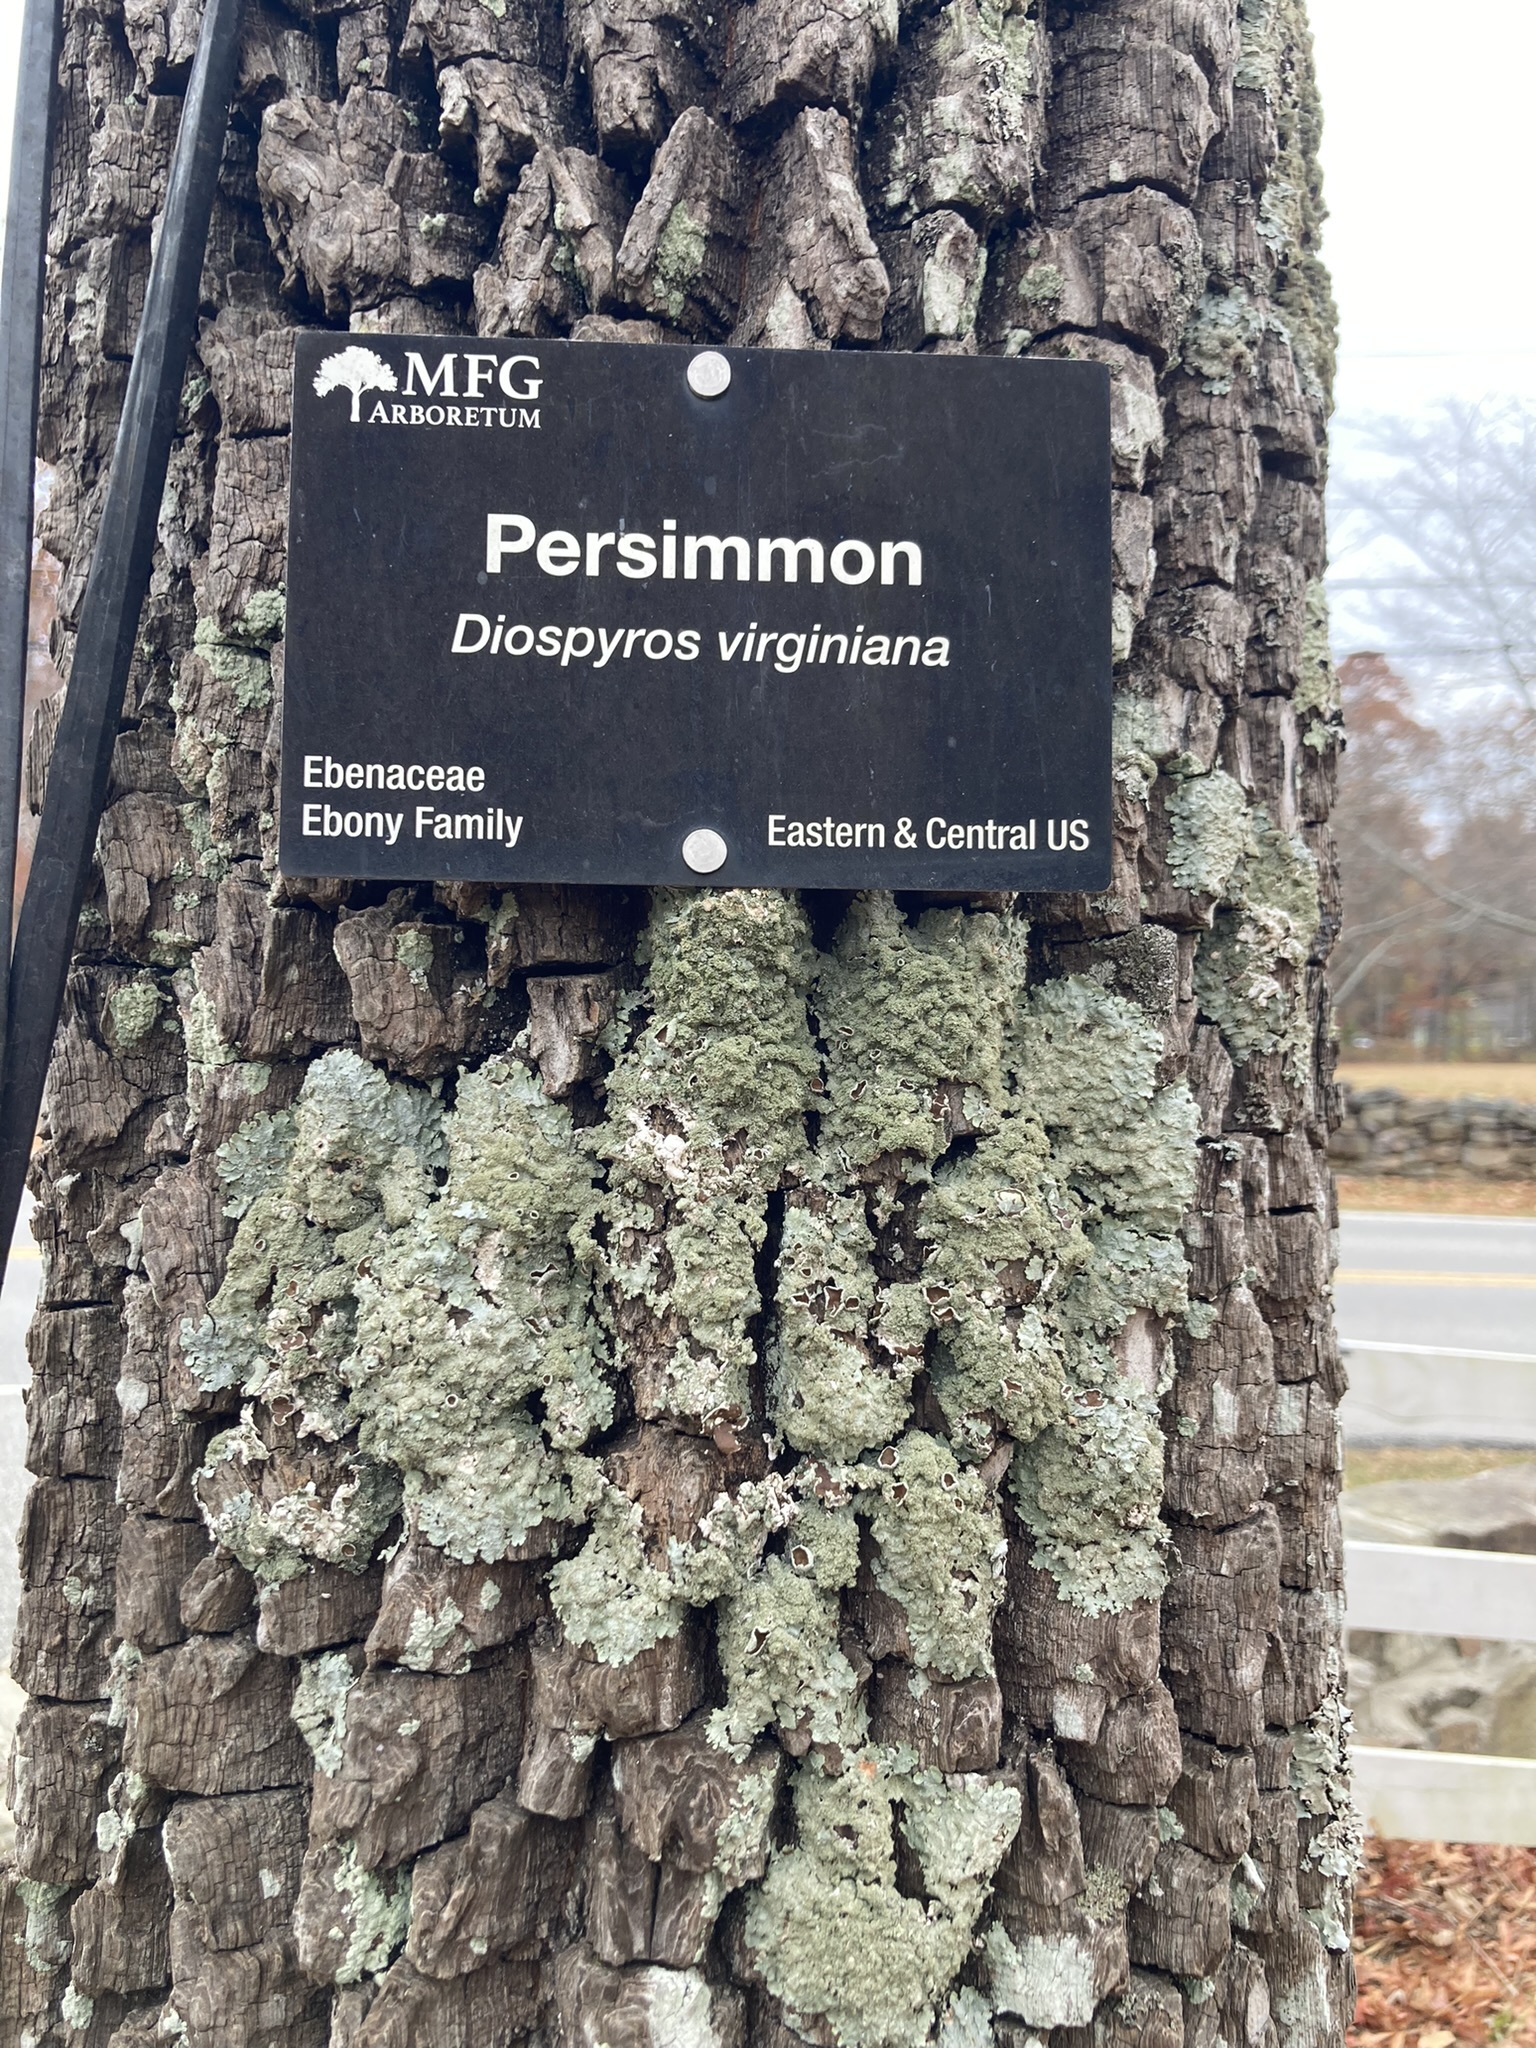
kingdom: Plantae
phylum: Tracheophyta
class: Magnoliopsida
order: Ericales
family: Ebenaceae
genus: Diospyros
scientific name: Diospyros virginiana
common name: Persimmon
